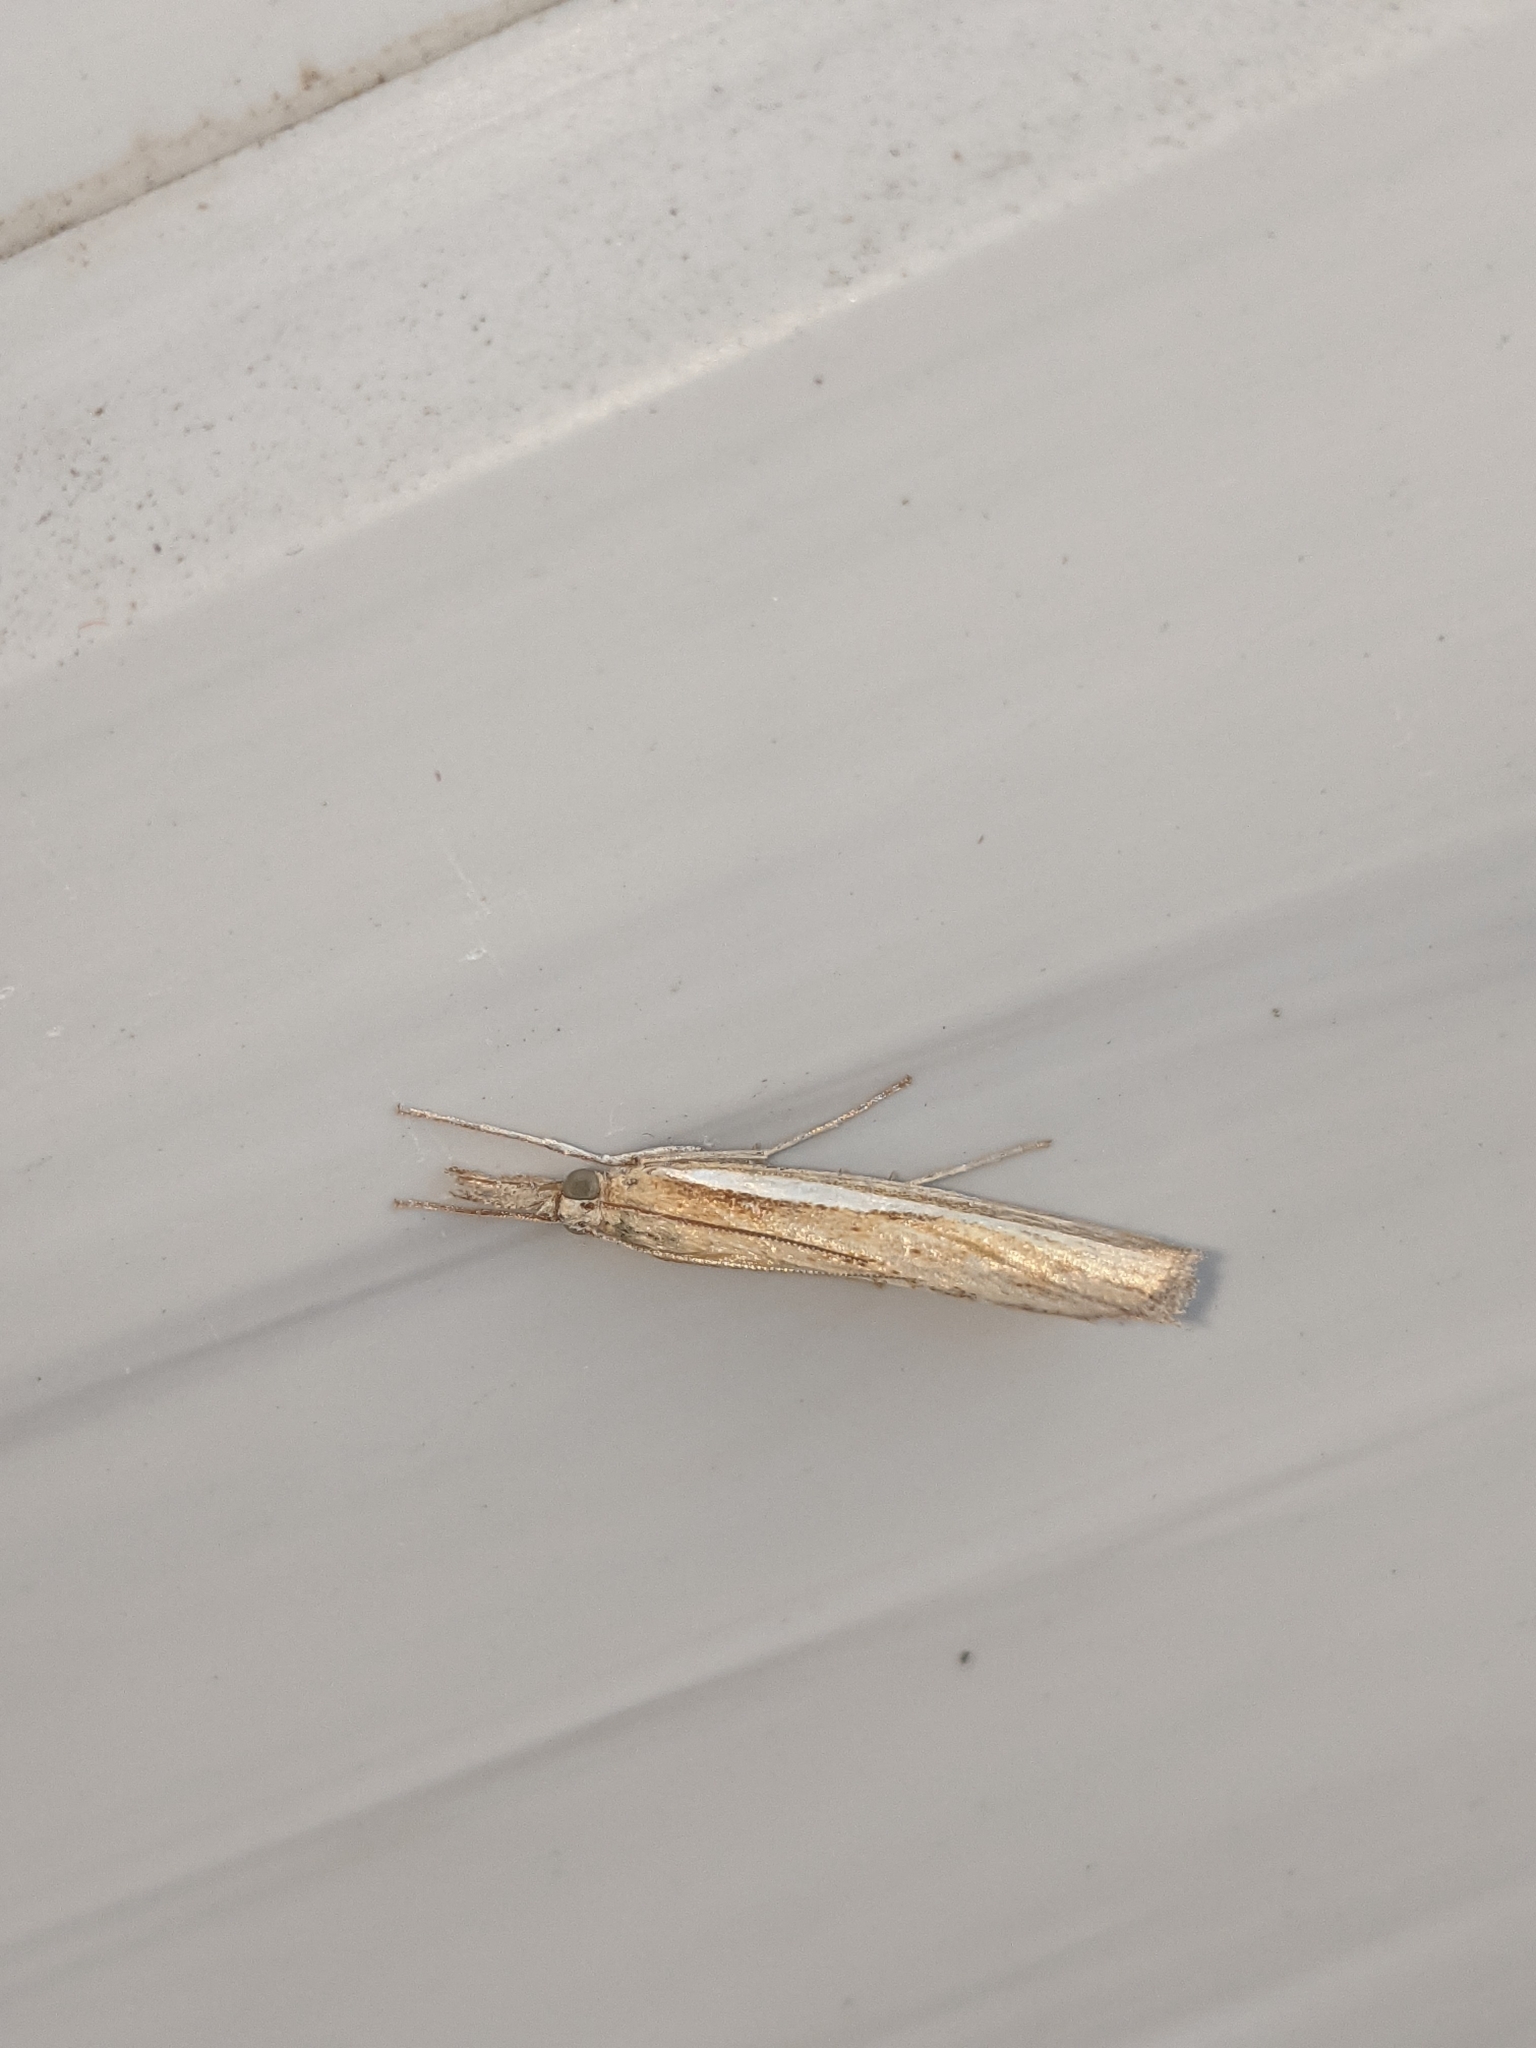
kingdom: Animalia
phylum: Arthropoda
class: Insecta
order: Lepidoptera
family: Crambidae
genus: Agriphila
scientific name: Agriphila tristellus
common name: Common grass-veneer
